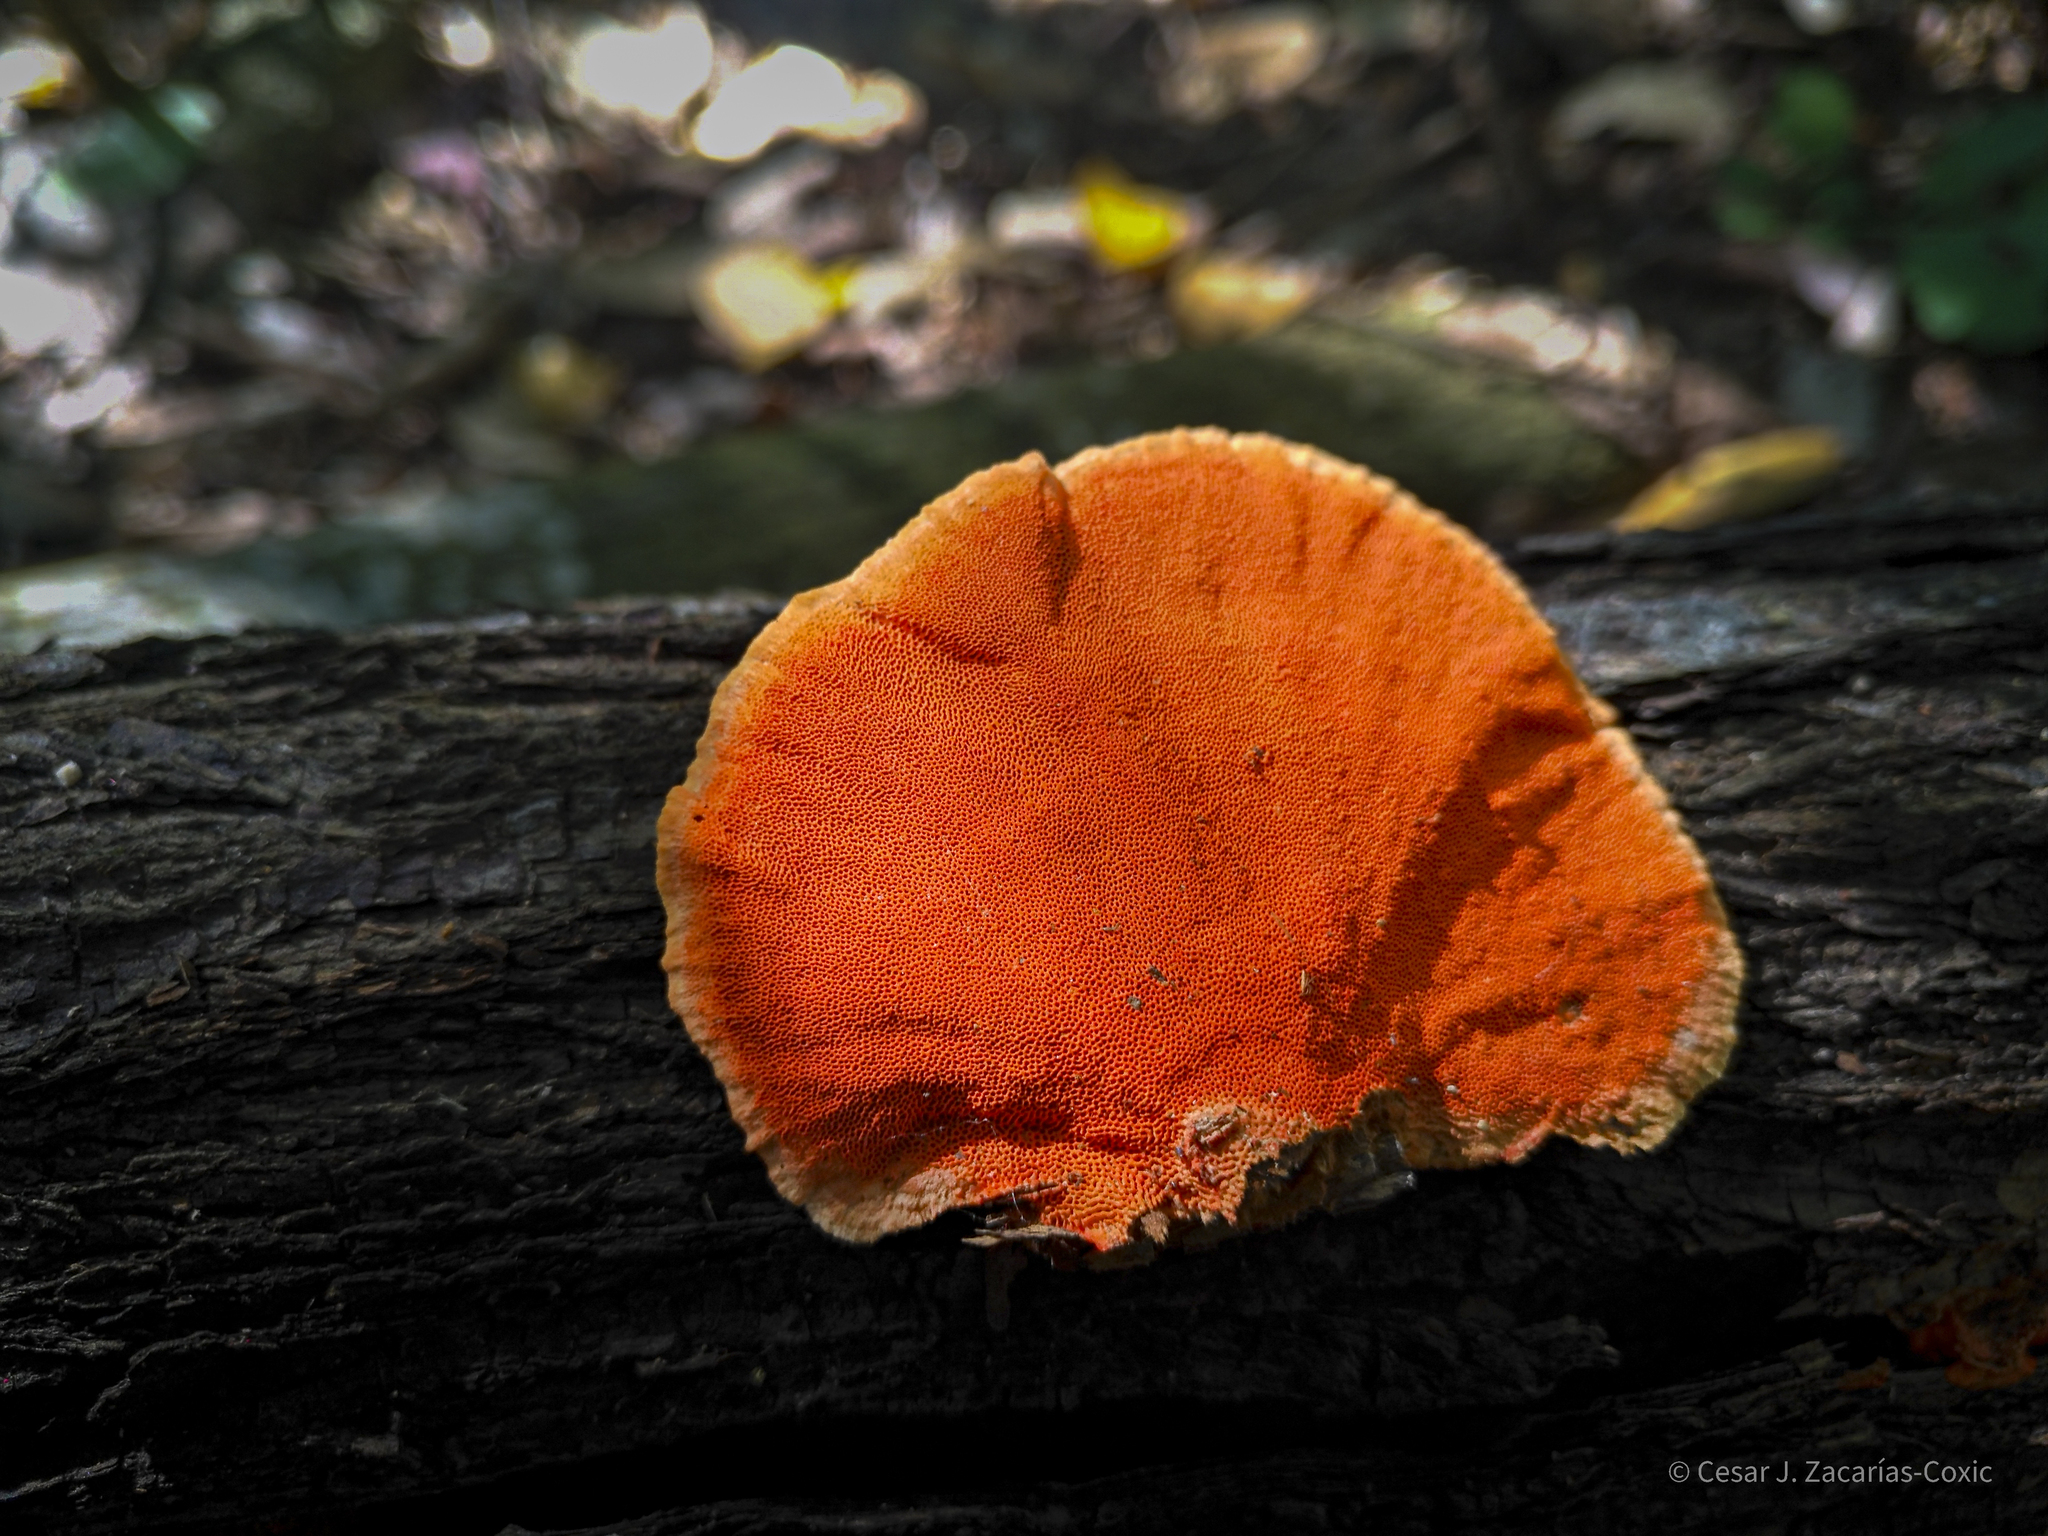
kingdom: Fungi
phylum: Basidiomycota
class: Agaricomycetes
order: Polyporales
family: Polyporaceae
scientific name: Polyporaceae
